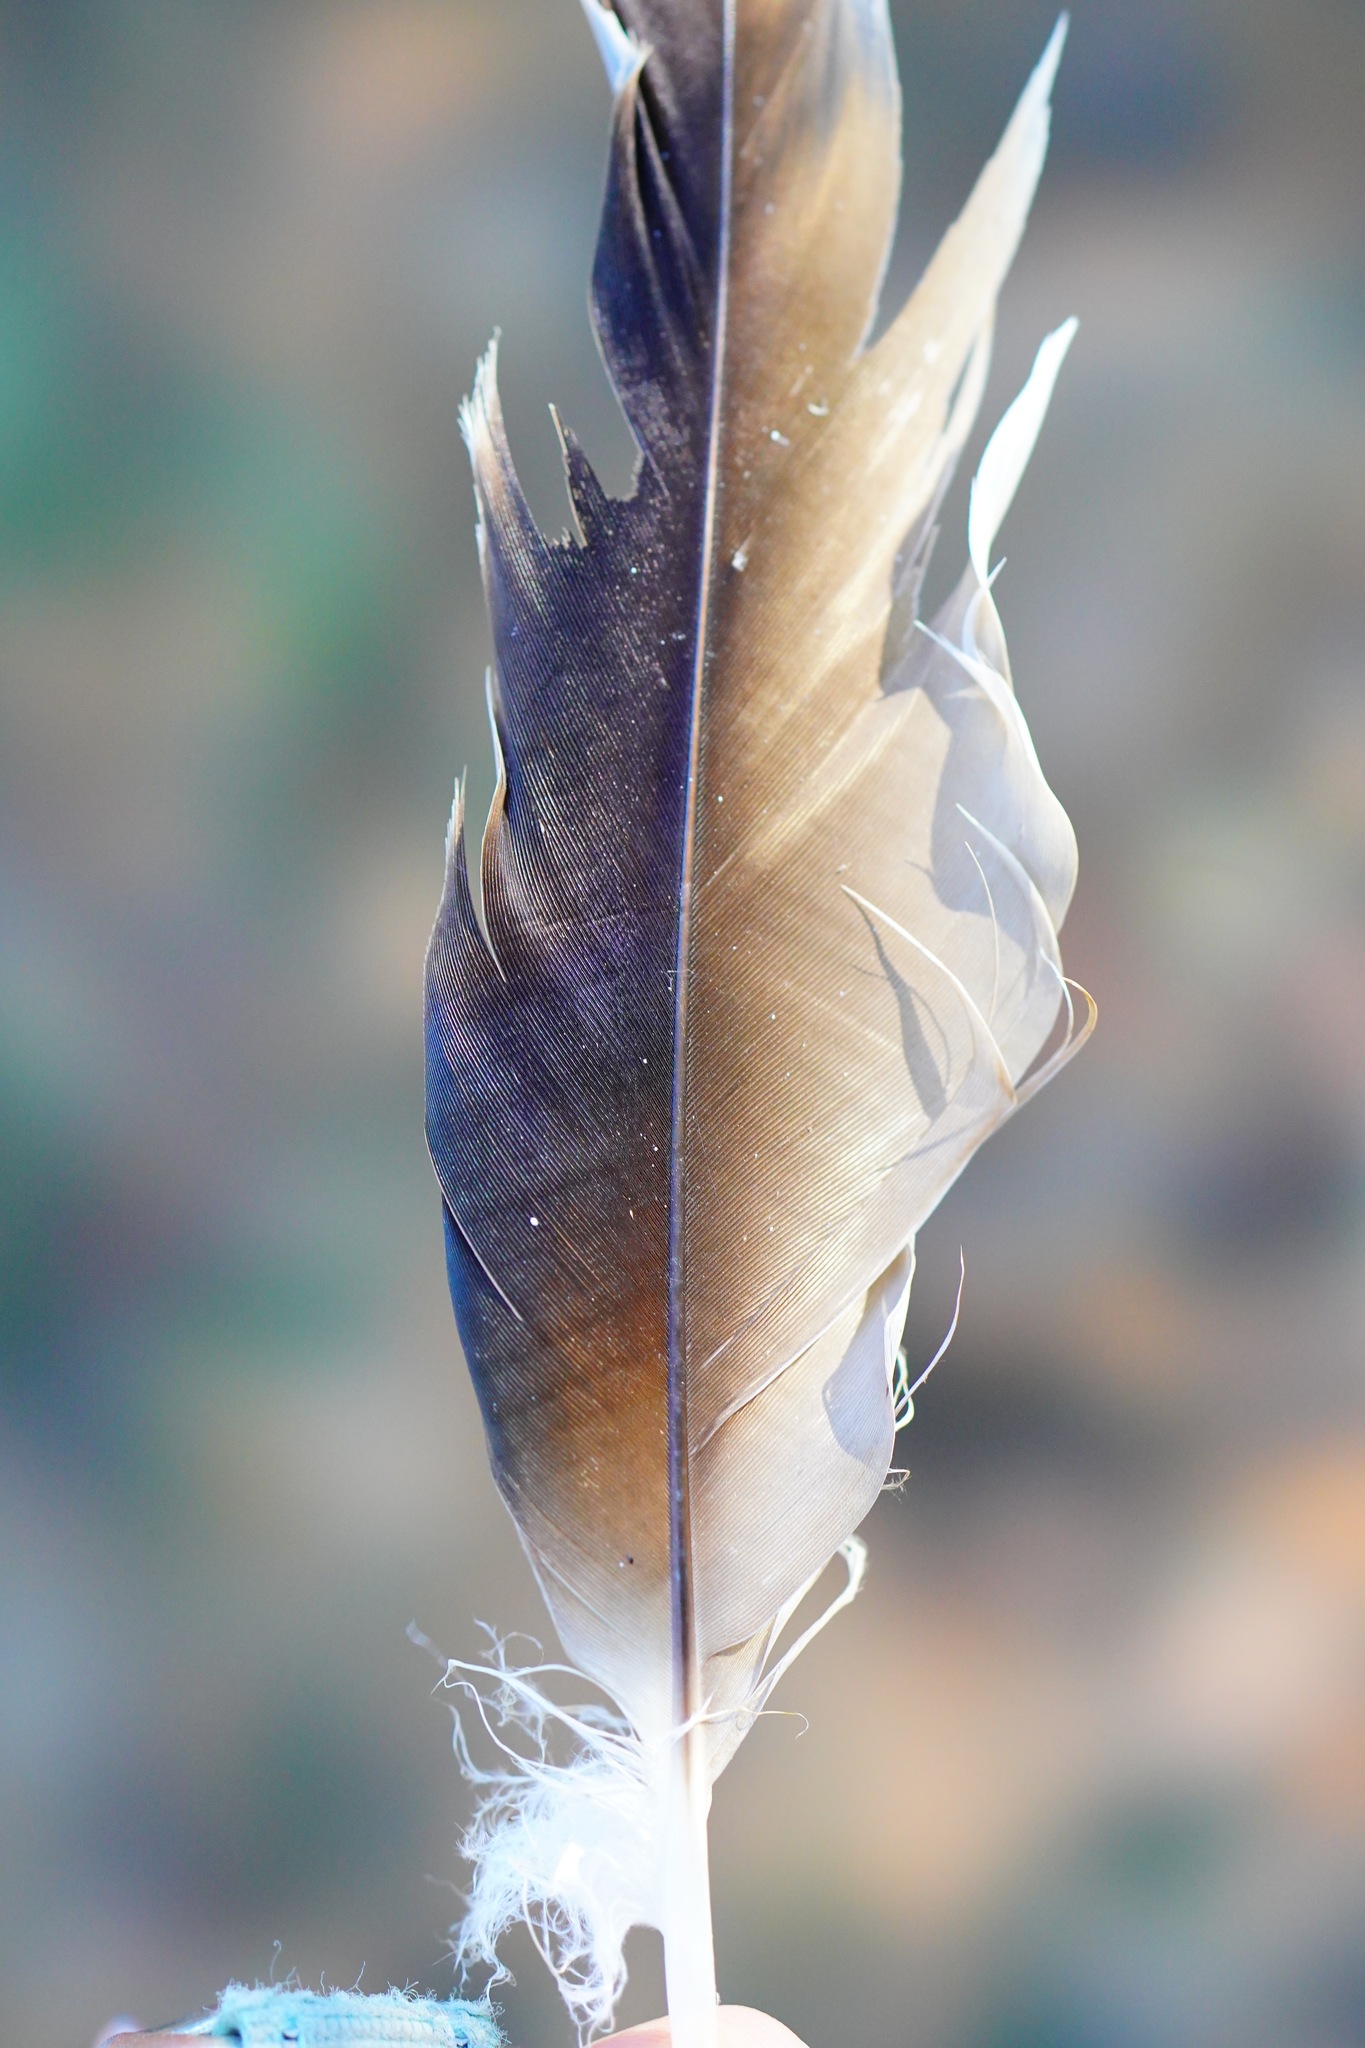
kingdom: Animalia
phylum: Chordata
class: Aves
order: Accipitriformes
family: Cathartidae
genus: Cathartes
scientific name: Cathartes aura
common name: Turkey vulture
